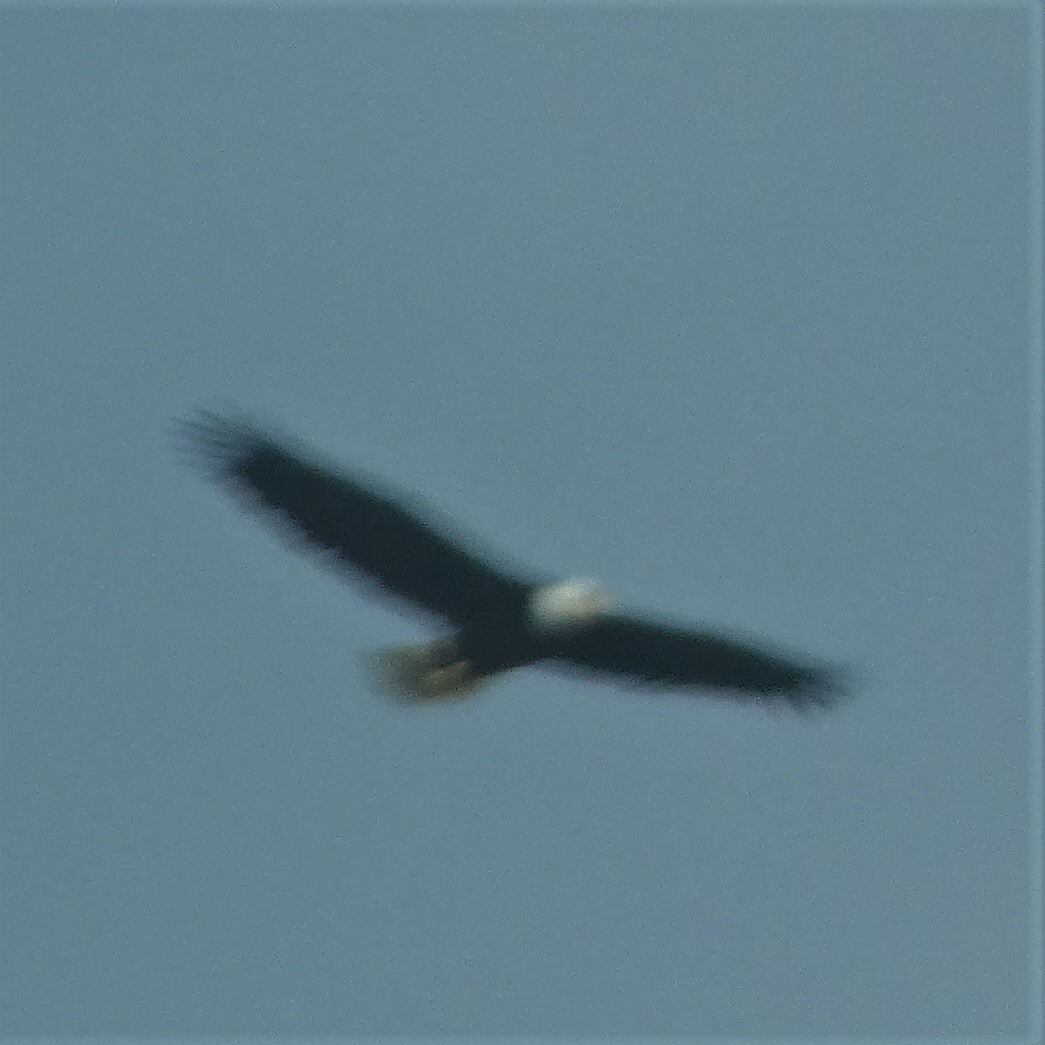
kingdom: Animalia
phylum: Chordata
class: Aves
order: Accipitriformes
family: Accipitridae
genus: Haliaeetus
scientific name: Haliaeetus leucocephalus
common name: Bald eagle
